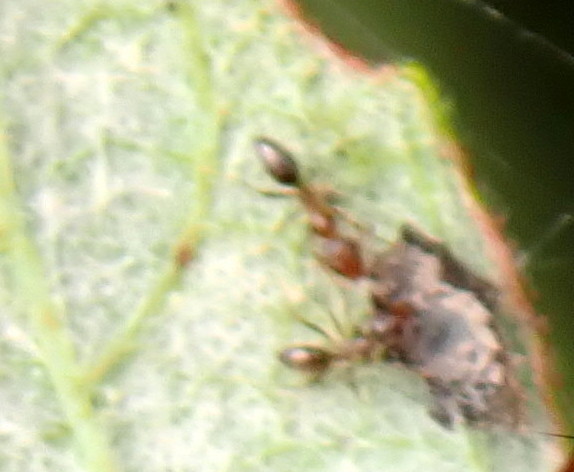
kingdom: Animalia
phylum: Arthropoda
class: Insecta
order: Hymenoptera
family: Formicidae
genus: Linepithema
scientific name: Linepithema humile
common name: Argentine ant
